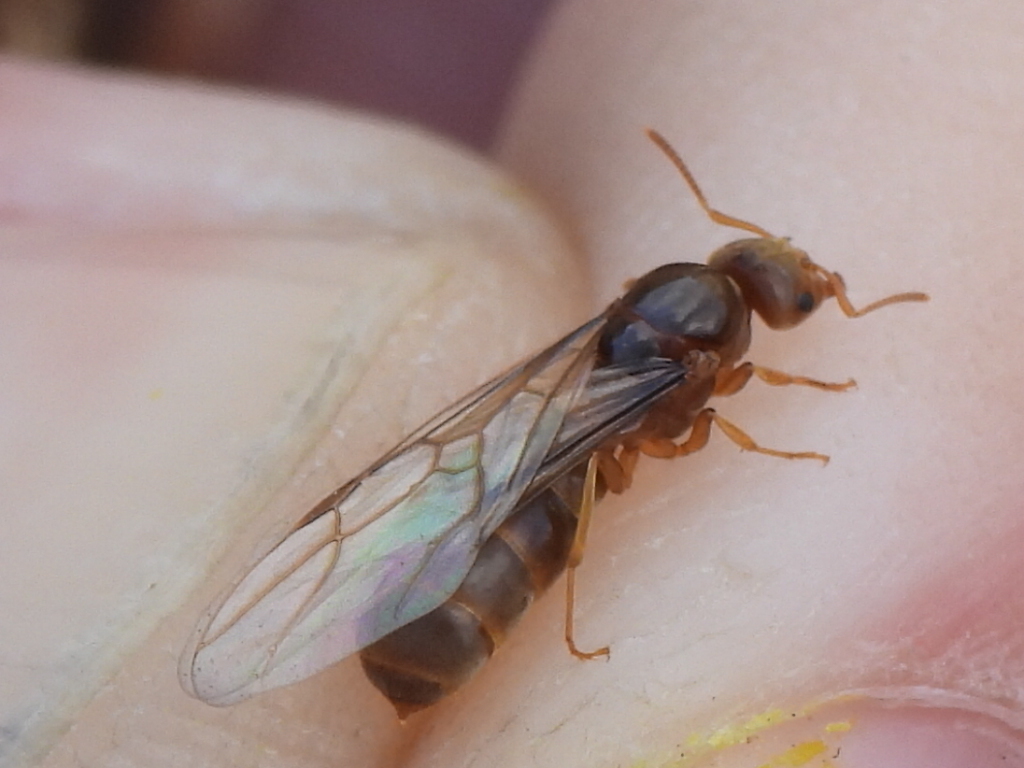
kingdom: Animalia
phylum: Arthropoda
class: Insecta
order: Hymenoptera
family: Formicidae
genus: Cautolasius
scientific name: Cautolasius
